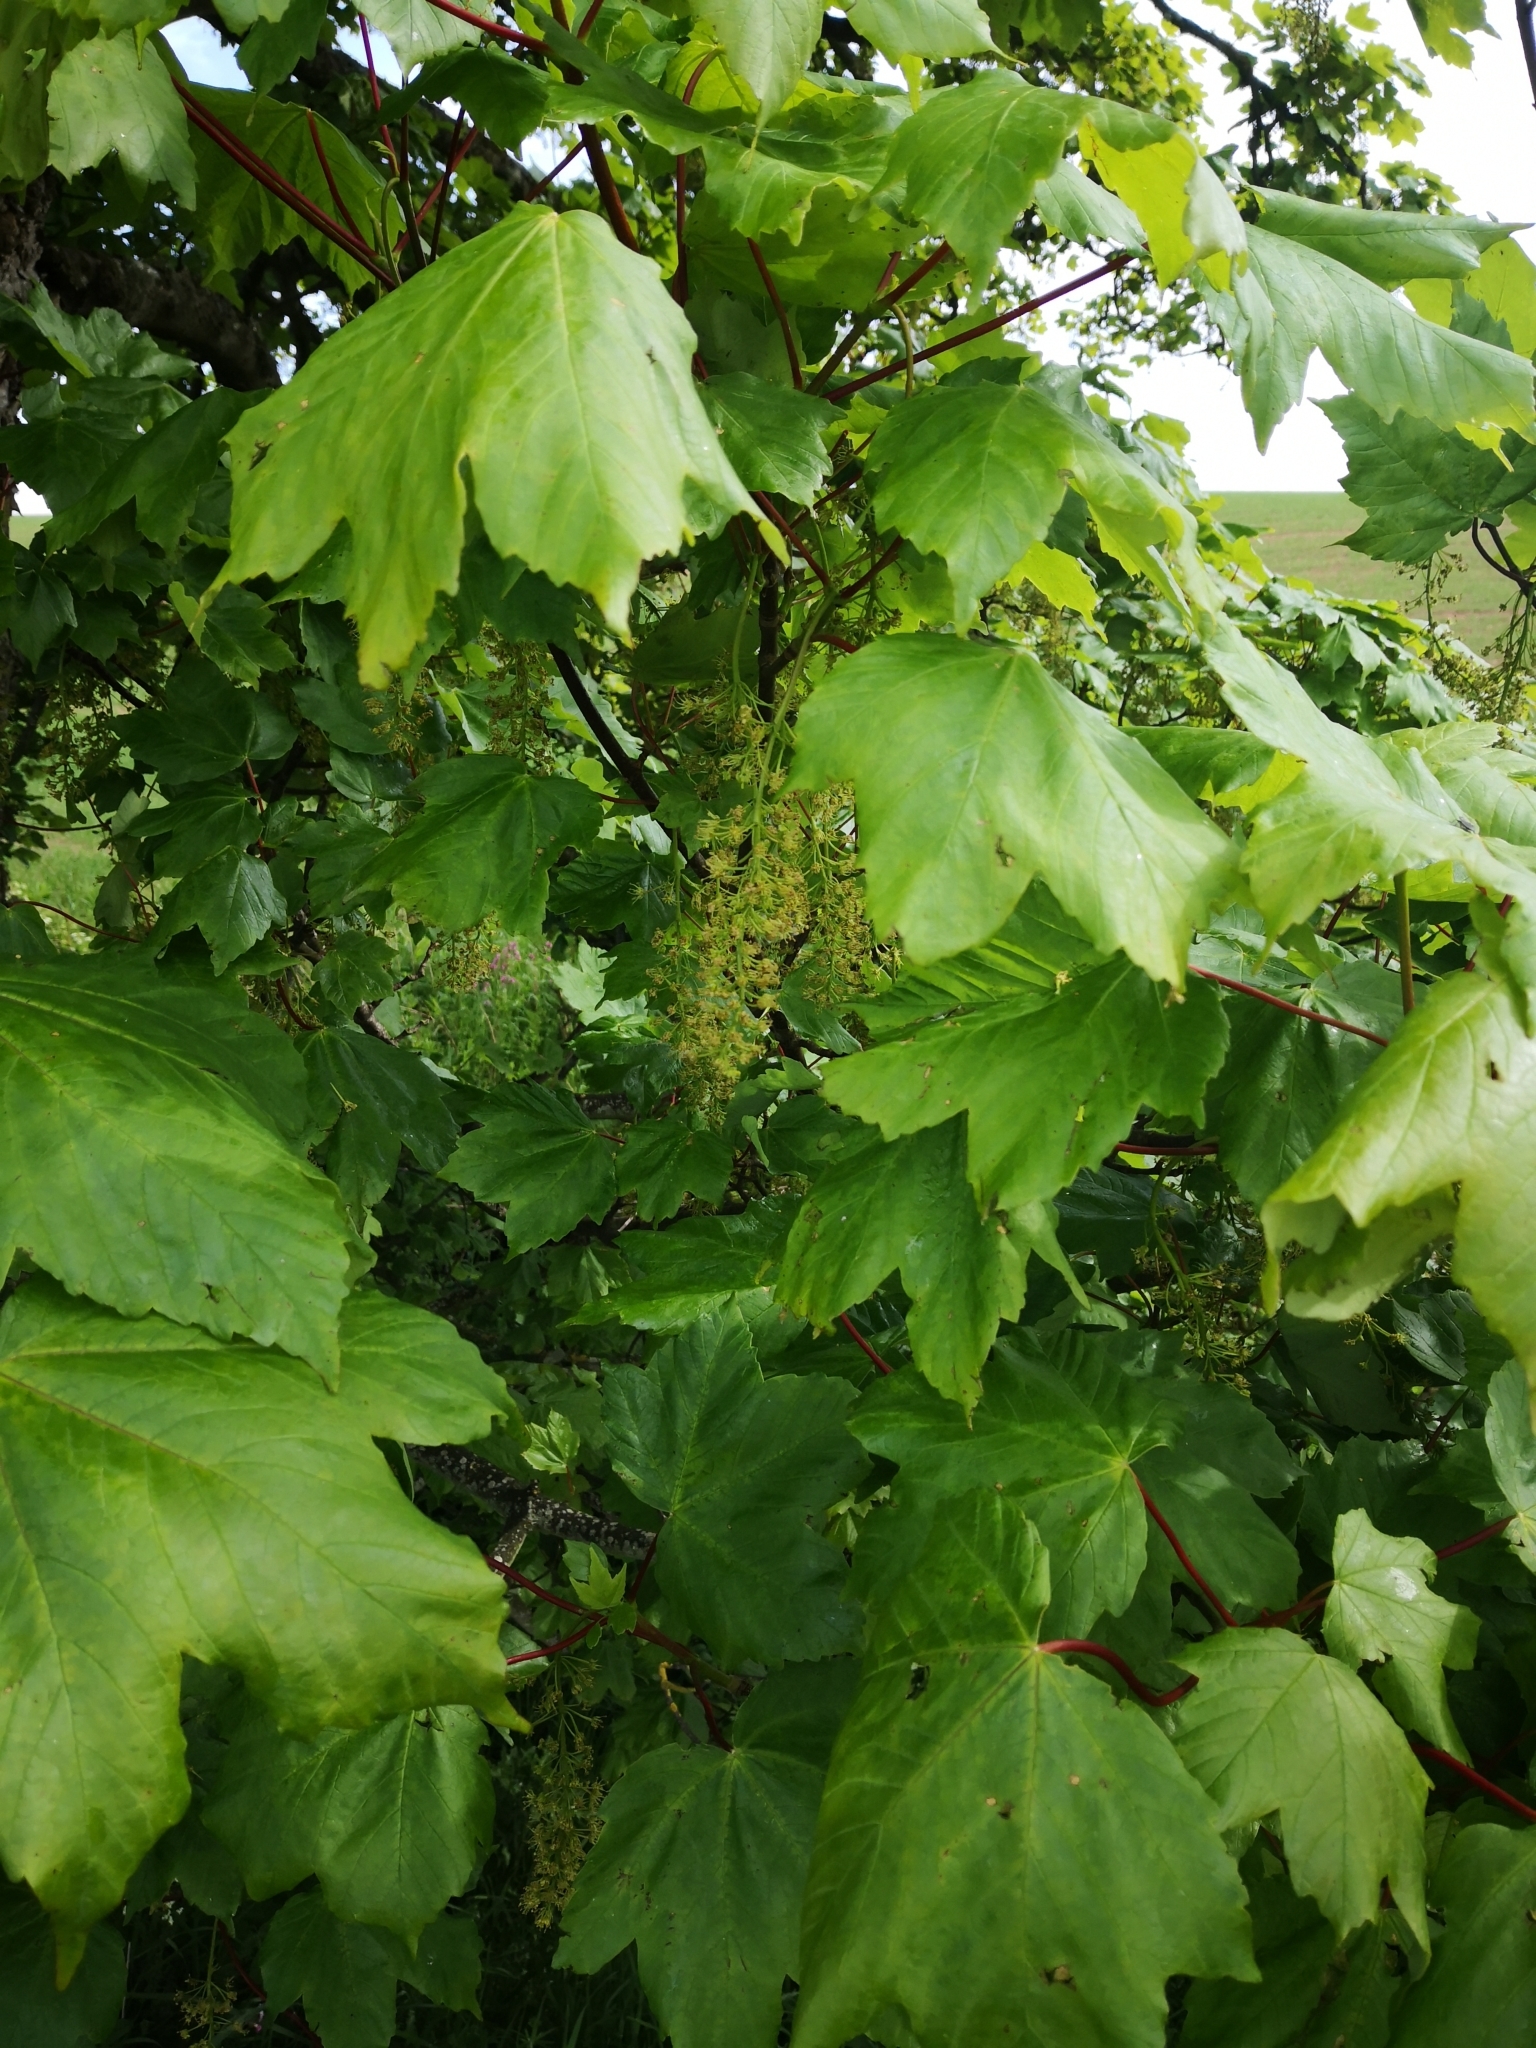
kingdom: Plantae
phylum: Tracheophyta
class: Magnoliopsida
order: Sapindales
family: Sapindaceae
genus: Acer
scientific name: Acer pseudoplatanus
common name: Sycamore
